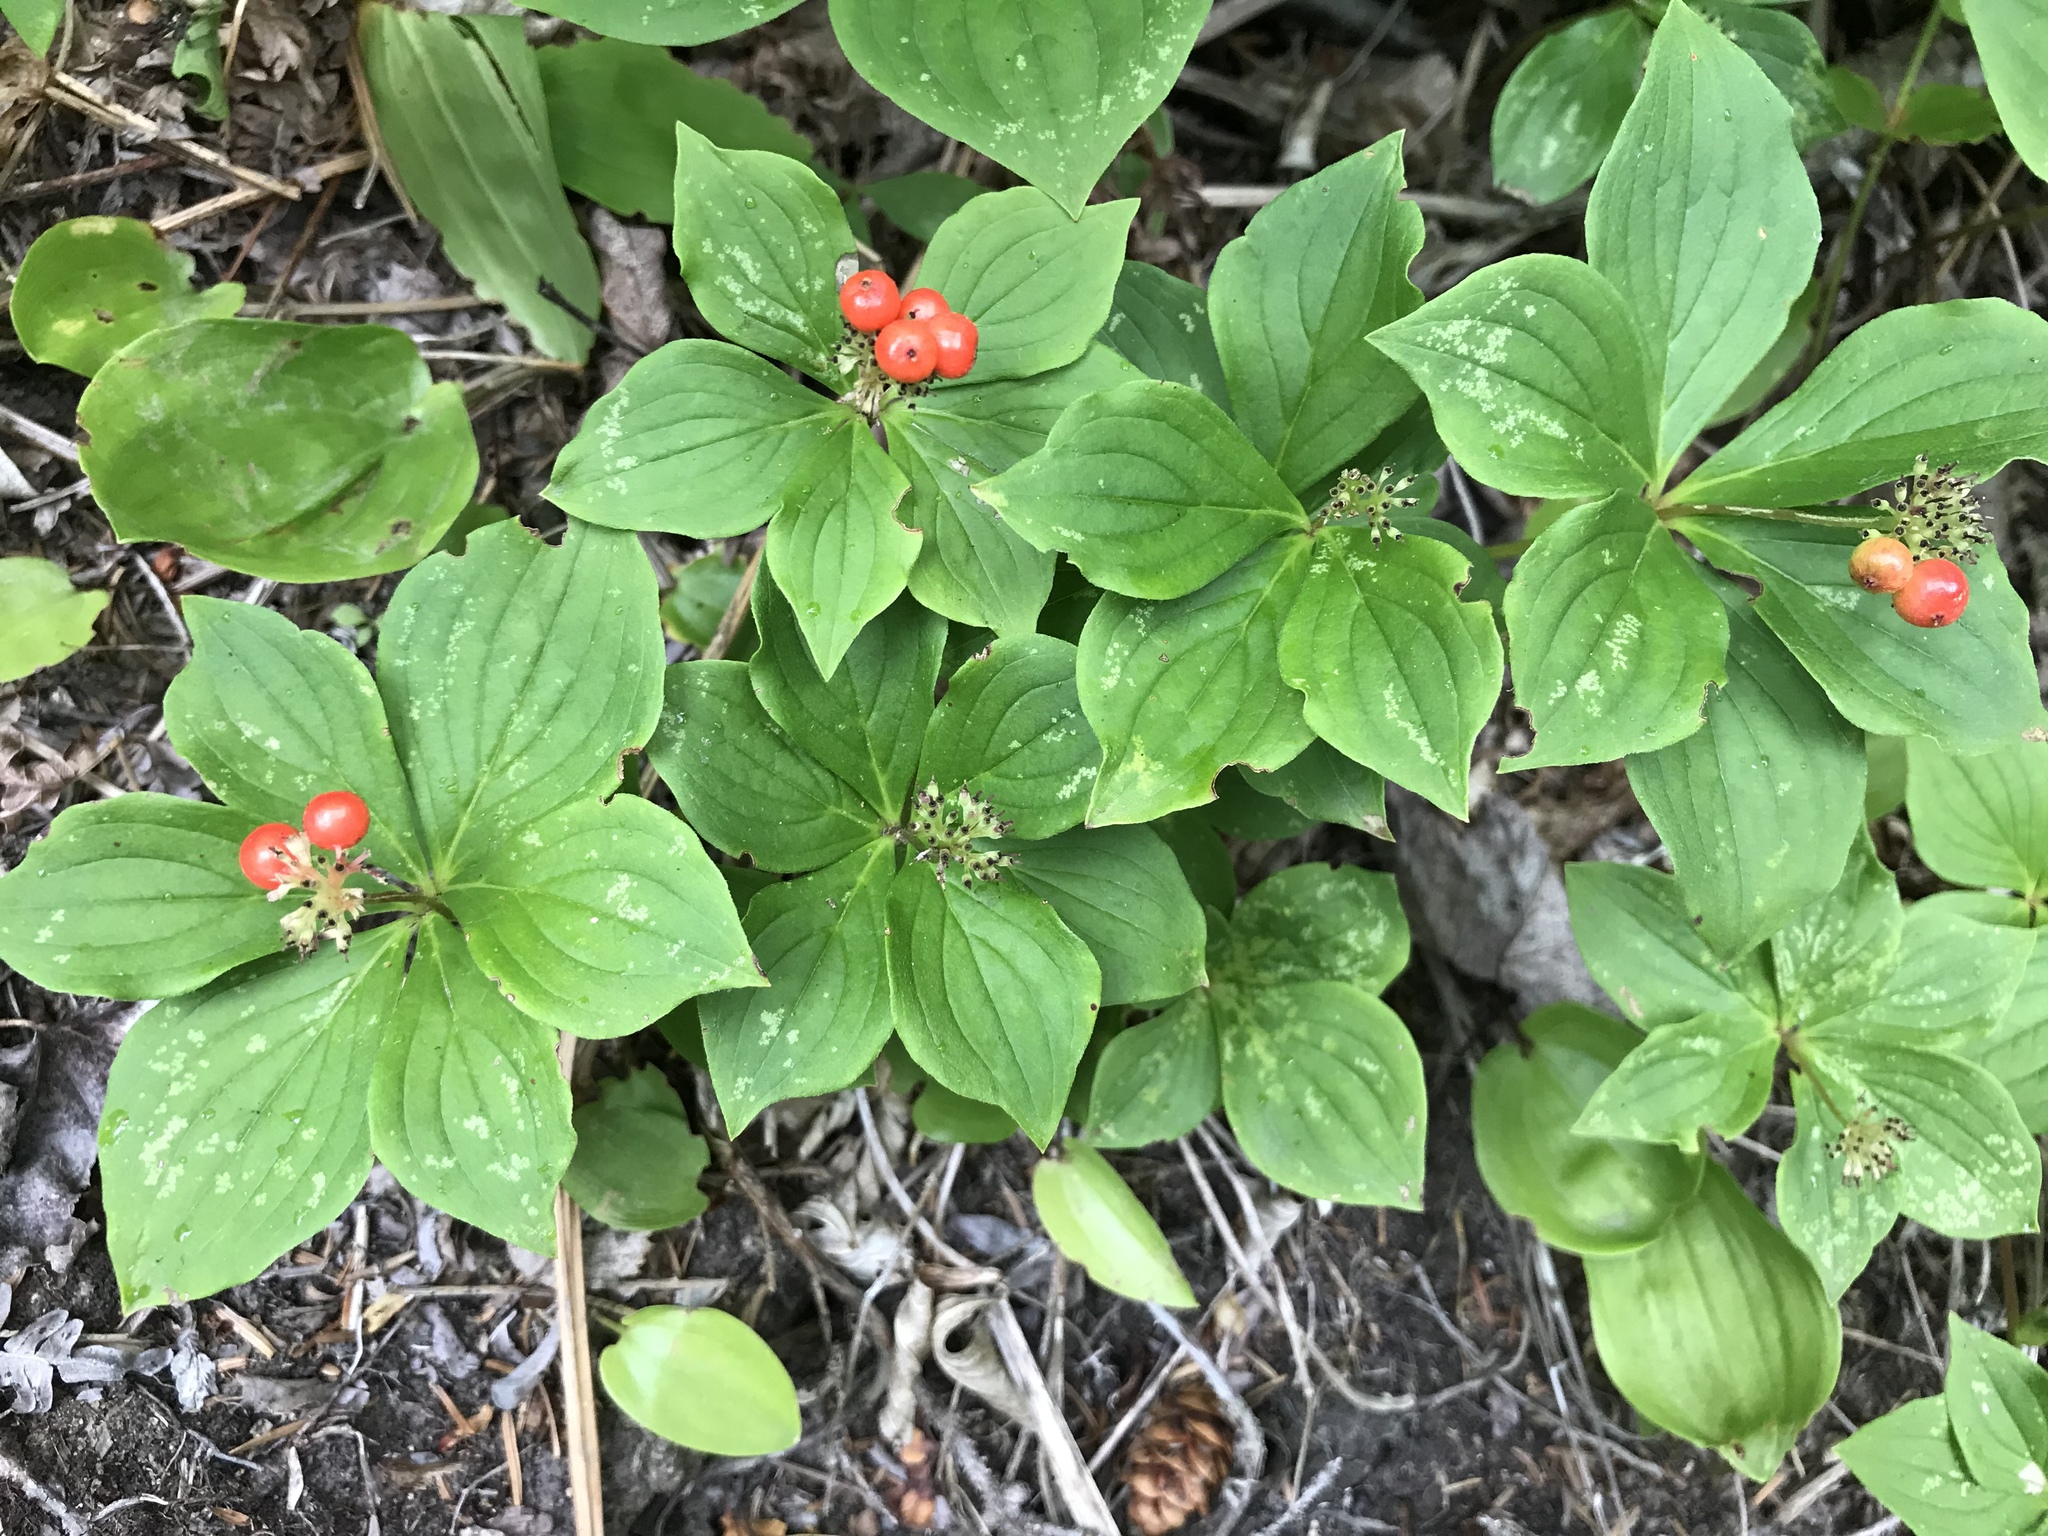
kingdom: Plantae
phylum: Tracheophyta
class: Magnoliopsida
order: Cornales
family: Cornaceae
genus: Cornus
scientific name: Cornus canadensis
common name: Creeping dogwood
